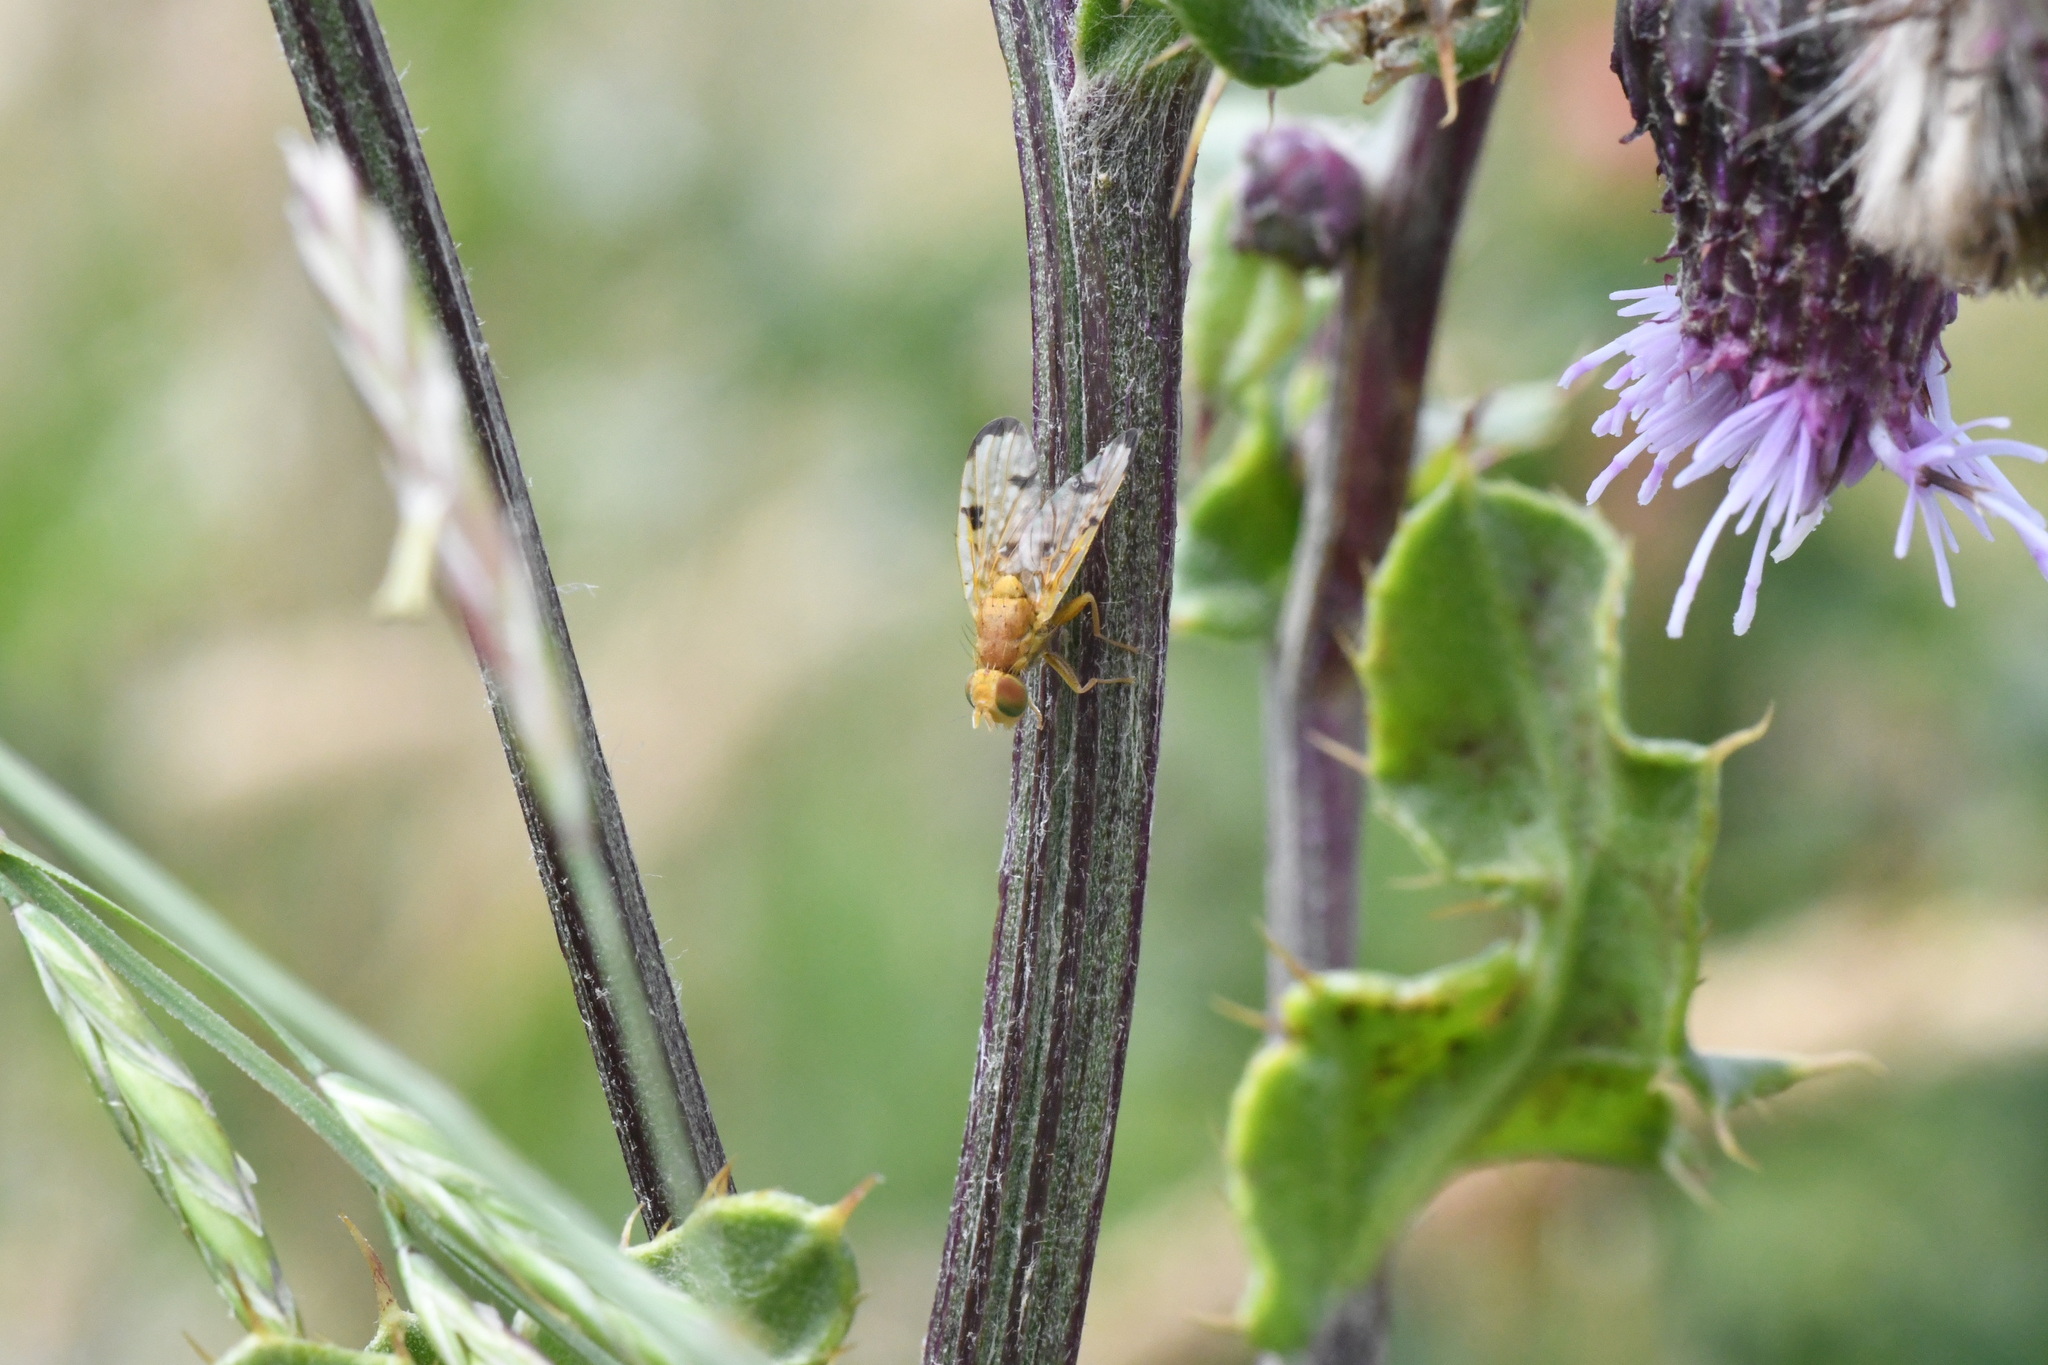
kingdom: Animalia
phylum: Arthropoda
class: Insecta
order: Diptera
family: Tephritidae
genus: Xyphosia
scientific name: Xyphosia miliaria
